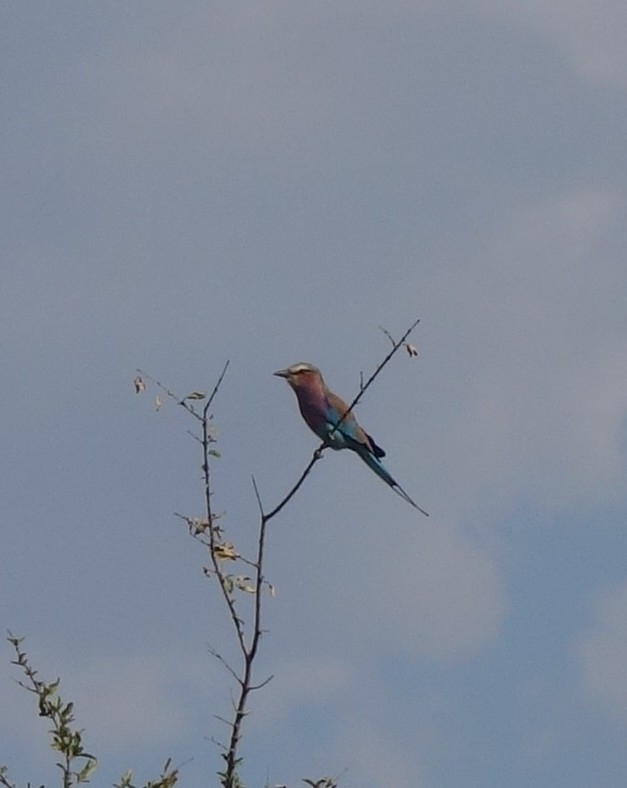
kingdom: Animalia
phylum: Chordata
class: Aves
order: Coraciiformes
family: Coraciidae
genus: Coracias
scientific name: Coracias caudatus
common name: Lilac-breasted roller
